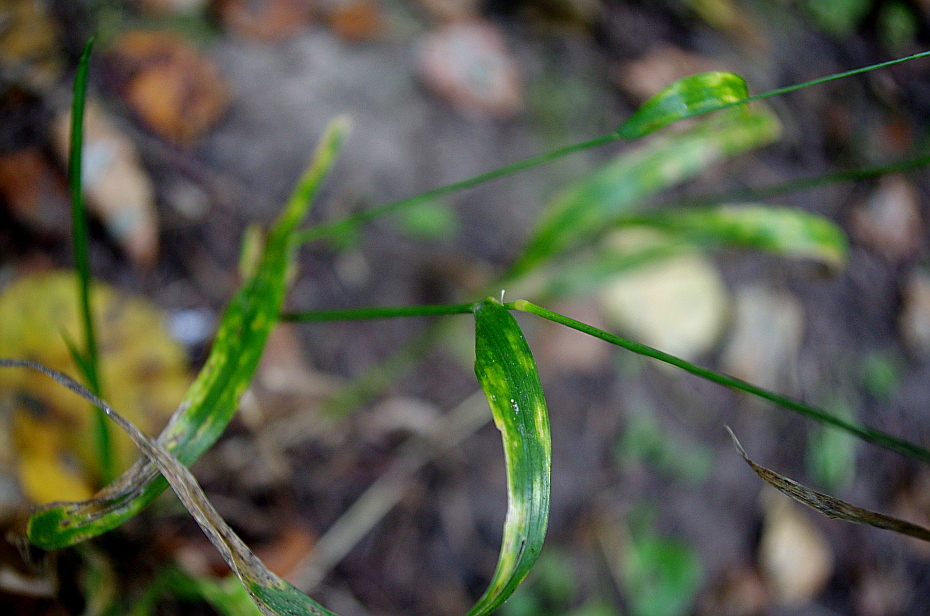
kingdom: Plantae
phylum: Tracheophyta
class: Liliopsida
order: Poales
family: Poaceae
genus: Lolium
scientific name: Lolium giganteum
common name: Giant fescue
